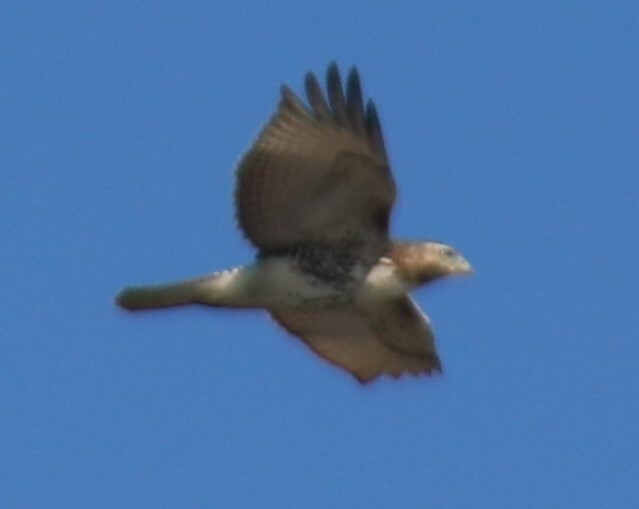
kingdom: Animalia
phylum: Chordata
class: Aves
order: Accipitriformes
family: Accipitridae
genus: Buteo
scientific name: Buteo jamaicensis
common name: Red-tailed hawk
